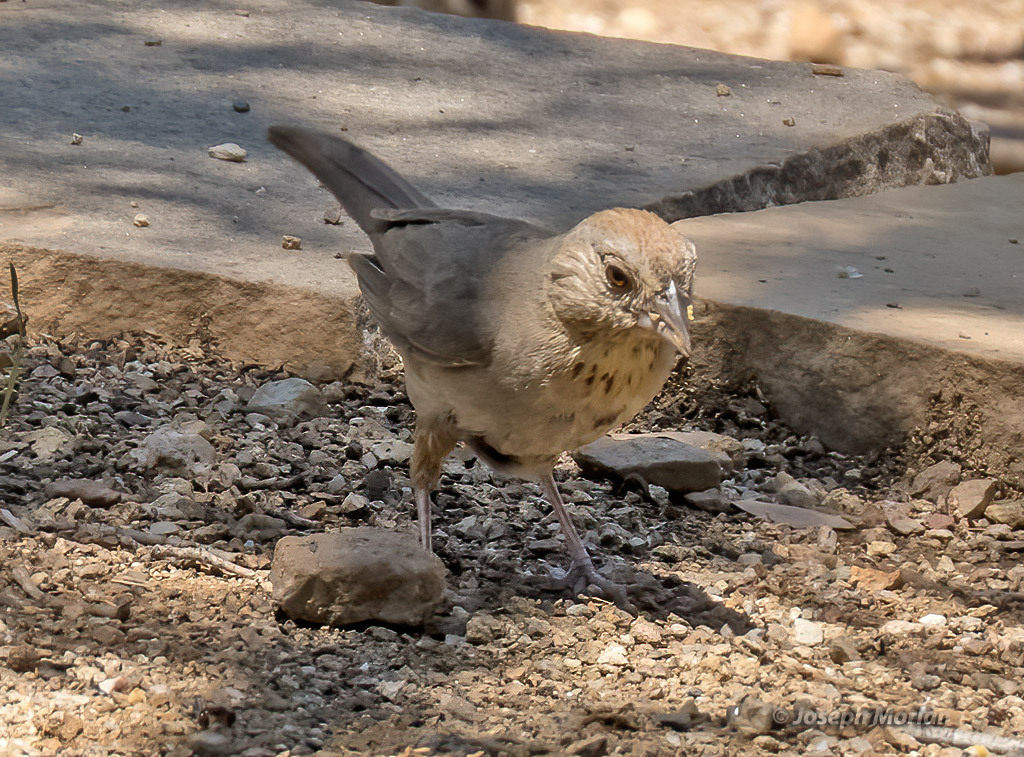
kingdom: Animalia
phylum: Chordata
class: Aves
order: Passeriformes
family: Passerellidae
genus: Melozone
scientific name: Melozone fusca
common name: Canyon towhee
